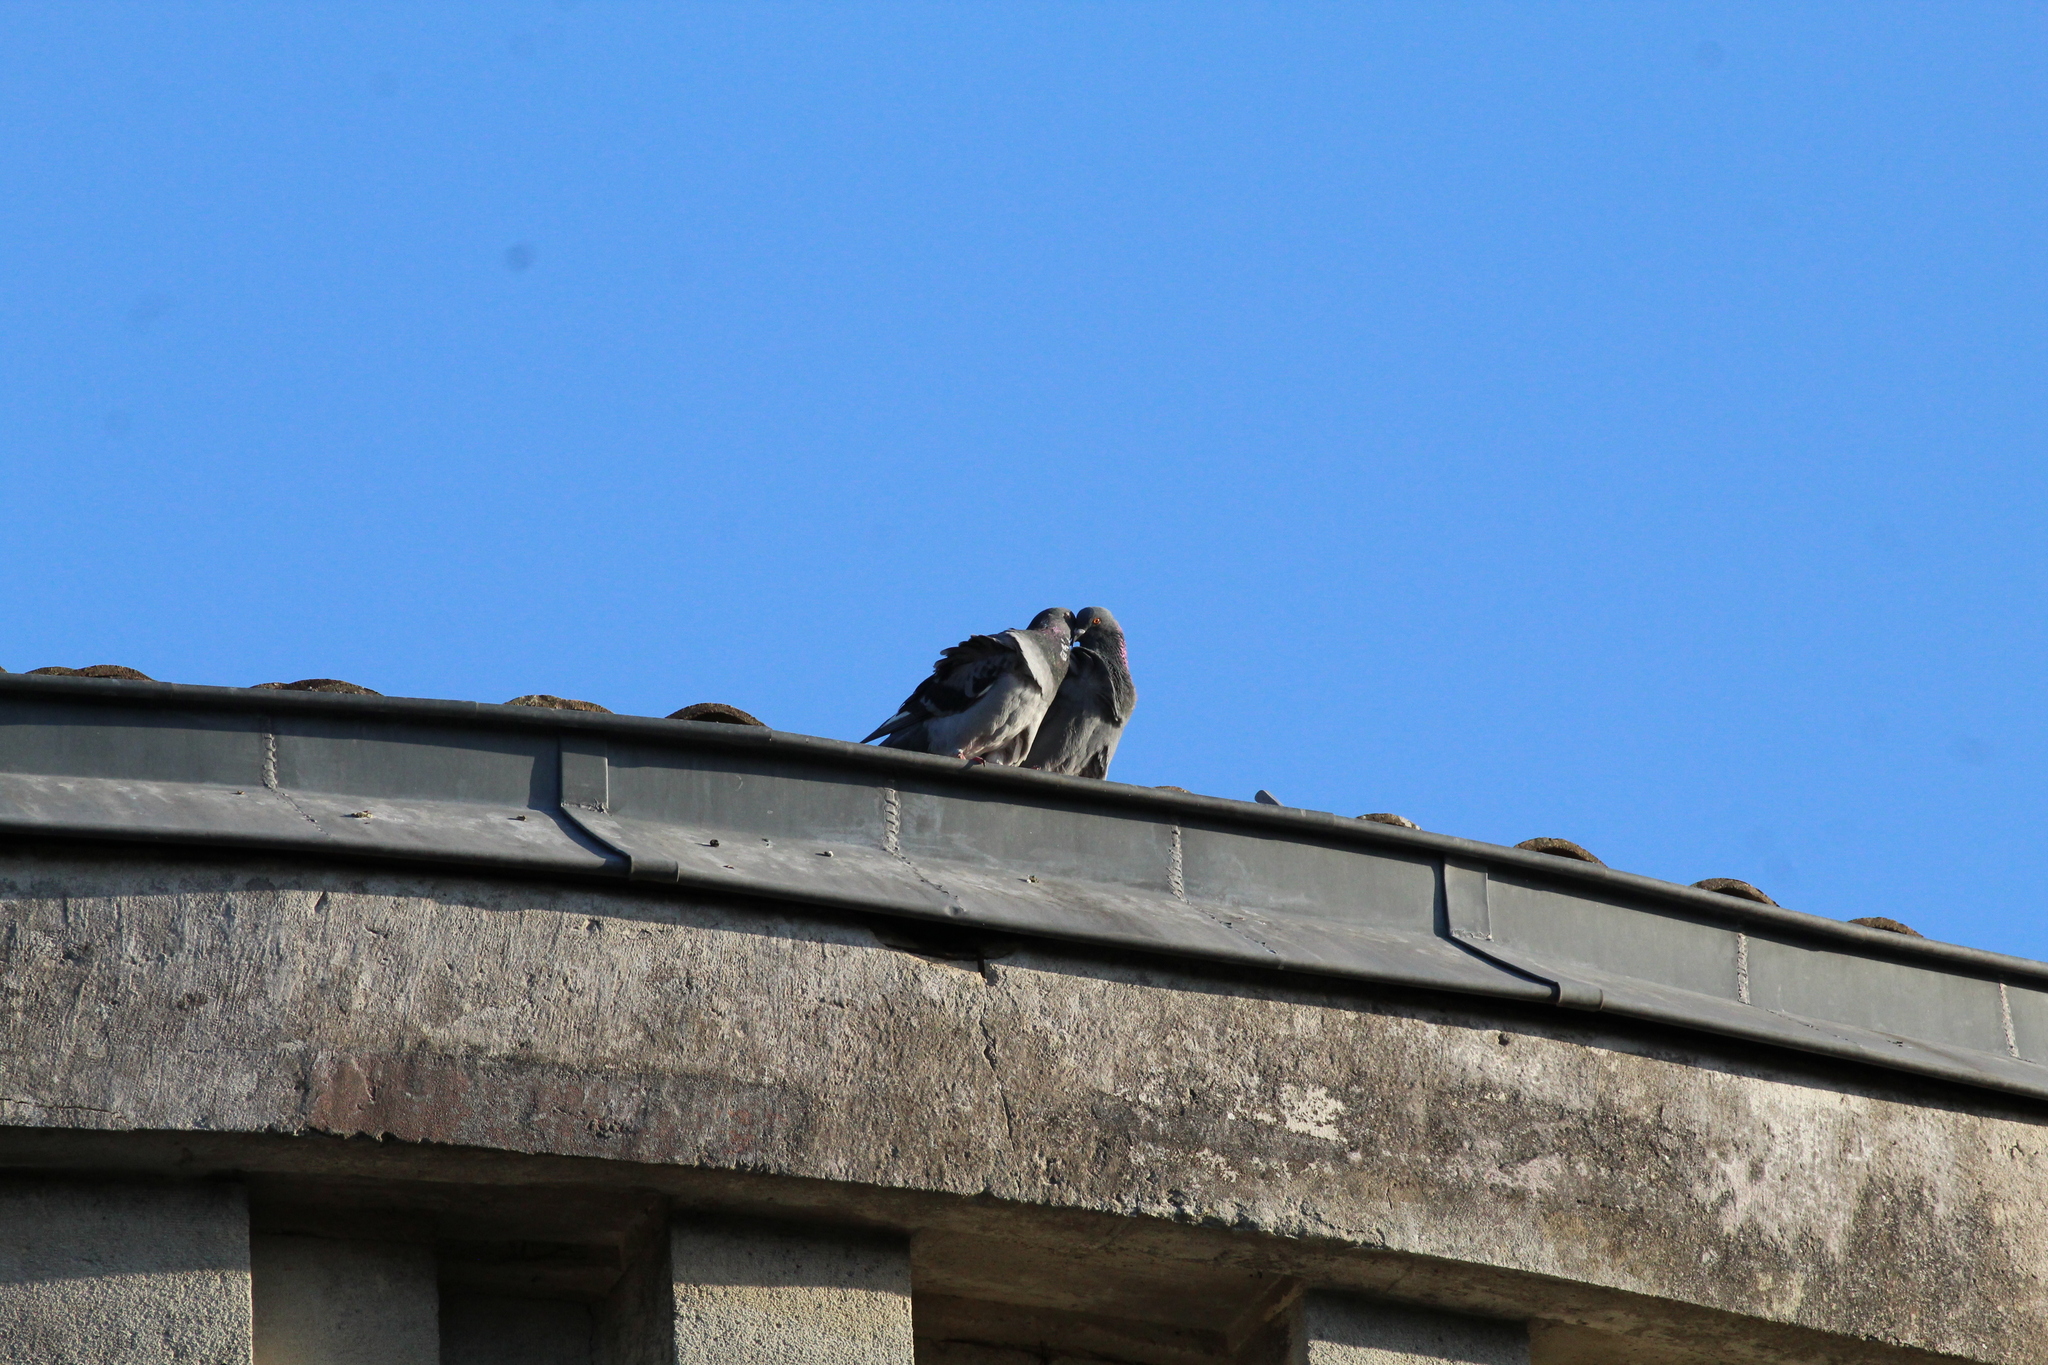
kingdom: Animalia
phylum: Chordata
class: Aves
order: Columbiformes
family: Columbidae
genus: Columba
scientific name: Columba livia
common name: Rock pigeon
